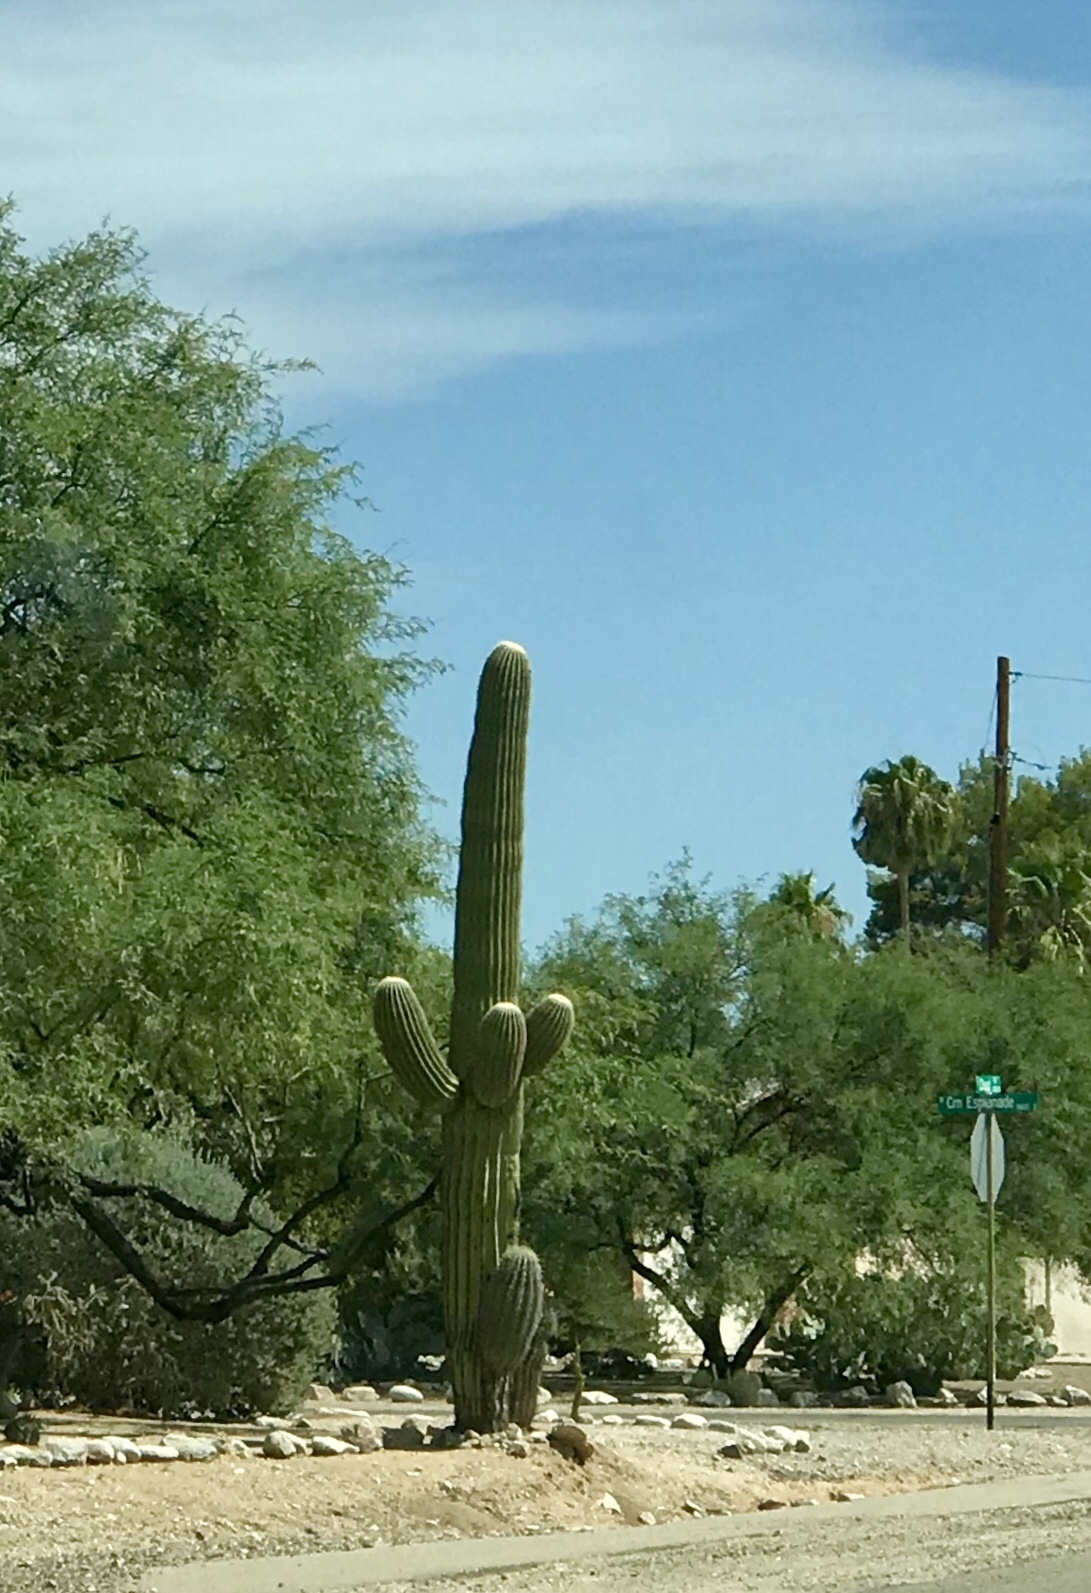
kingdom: Plantae
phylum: Tracheophyta
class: Magnoliopsida
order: Caryophyllales
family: Cactaceae
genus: Carnegiea
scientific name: Carnegiea gigantea
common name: Saguaro
